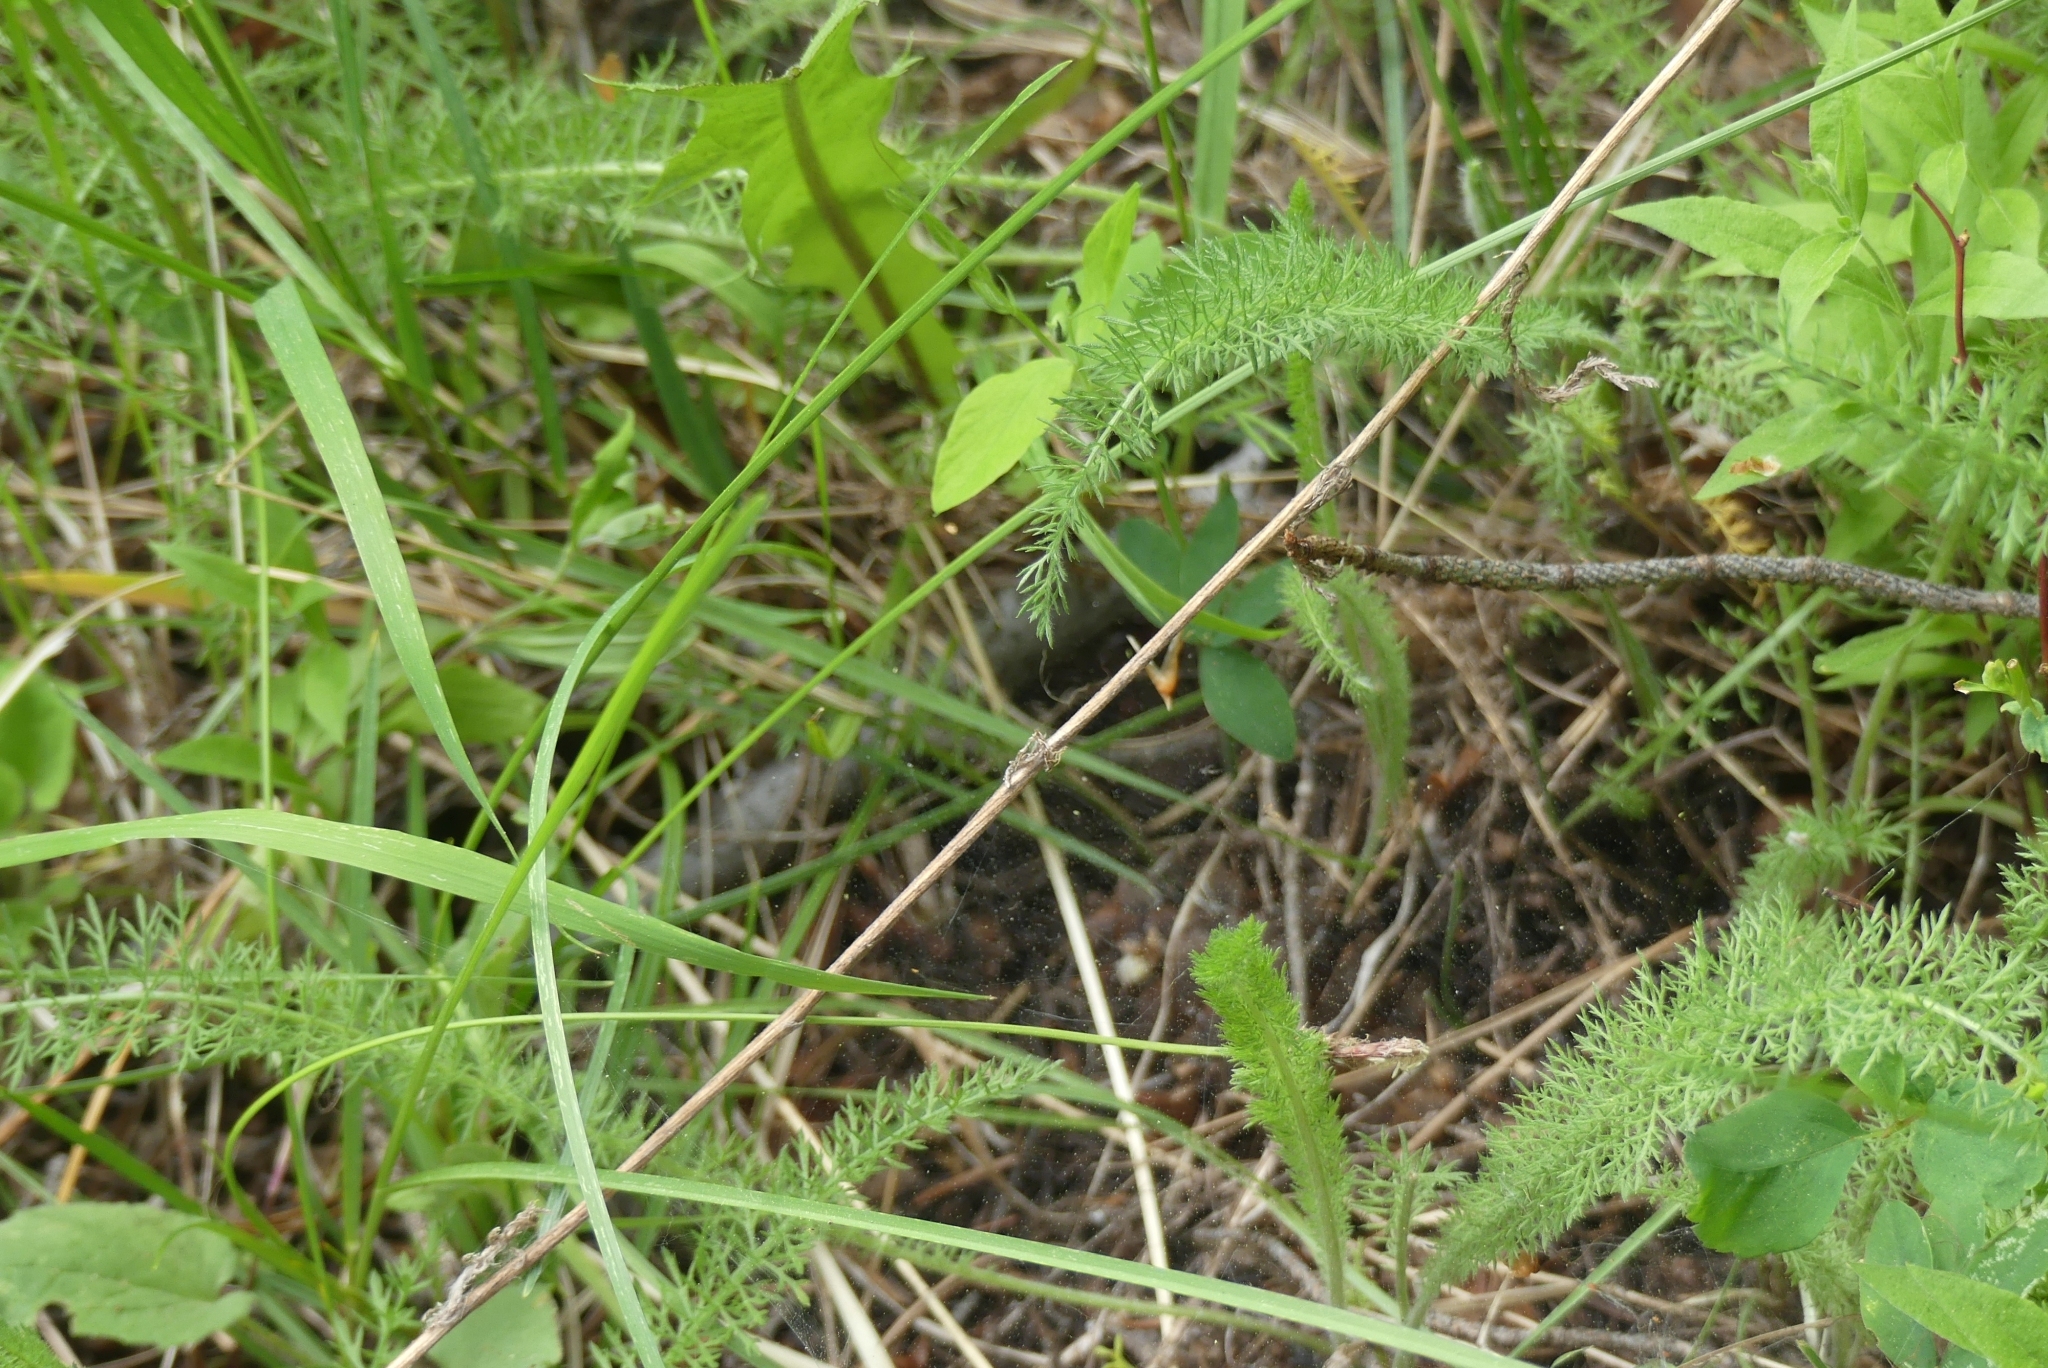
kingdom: Plantae
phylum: Tracheophyta
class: Magnoliopsida
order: Asterales
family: Asteraceae
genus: Achillea
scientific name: Achillea millefolium
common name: Yarrow
